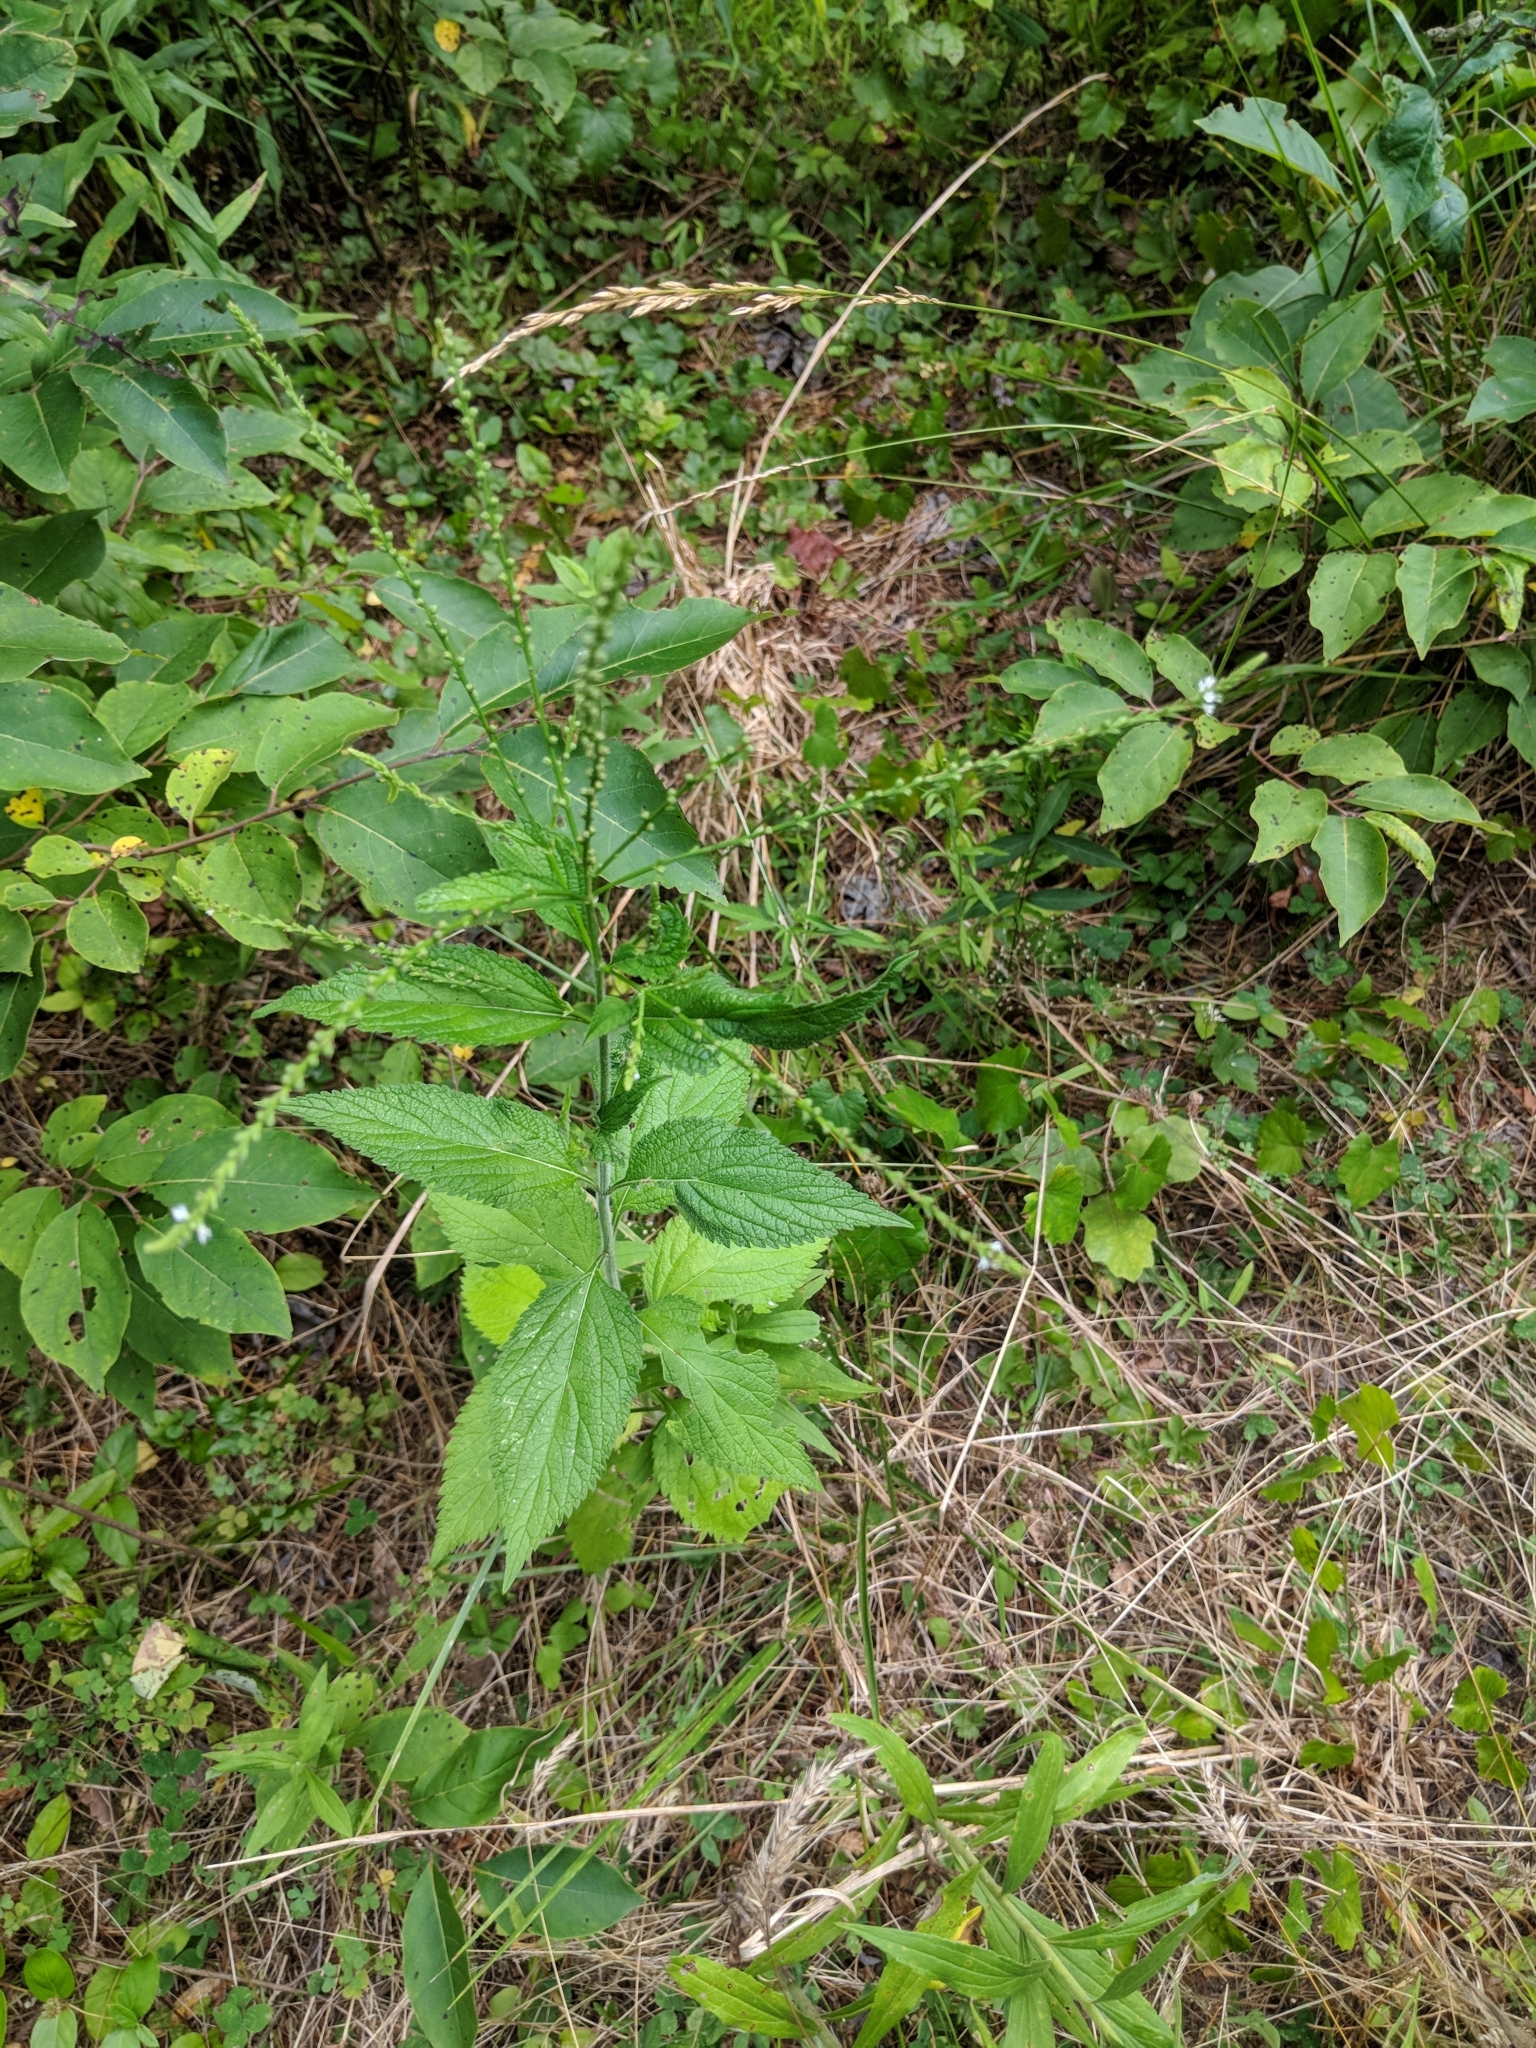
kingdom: Plantae
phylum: Tracheophyta
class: Magnoliopsida
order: Lamiales
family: Verbenaceae
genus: Verbena
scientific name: Verbena urticifolia
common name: Nettle-leaved vervain
